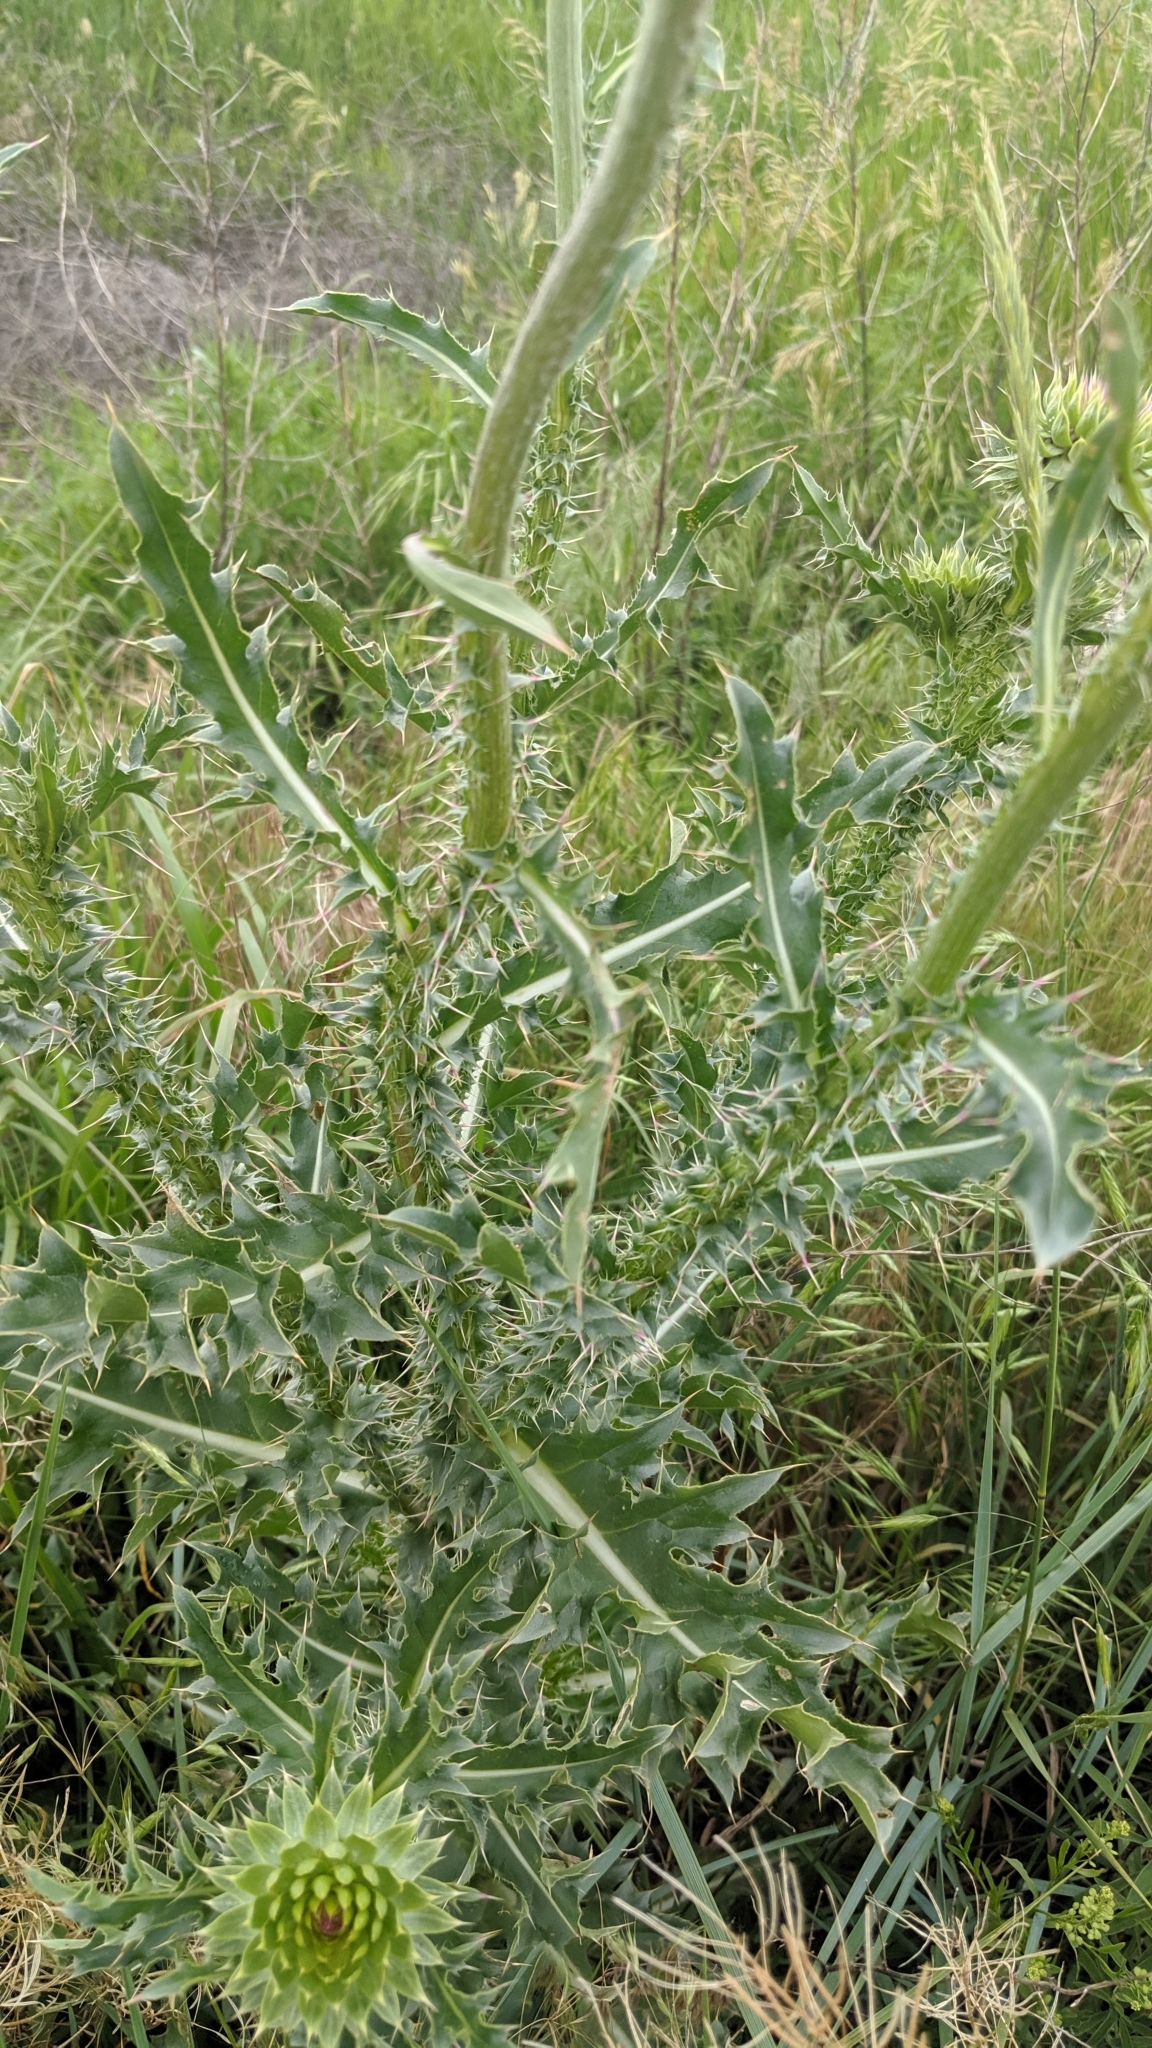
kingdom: Plantae
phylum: Tracheophyta
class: Magnoliopsida
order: Asterales
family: Asteraceae
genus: Carduus
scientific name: Carduus nutans
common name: Musk thistle
